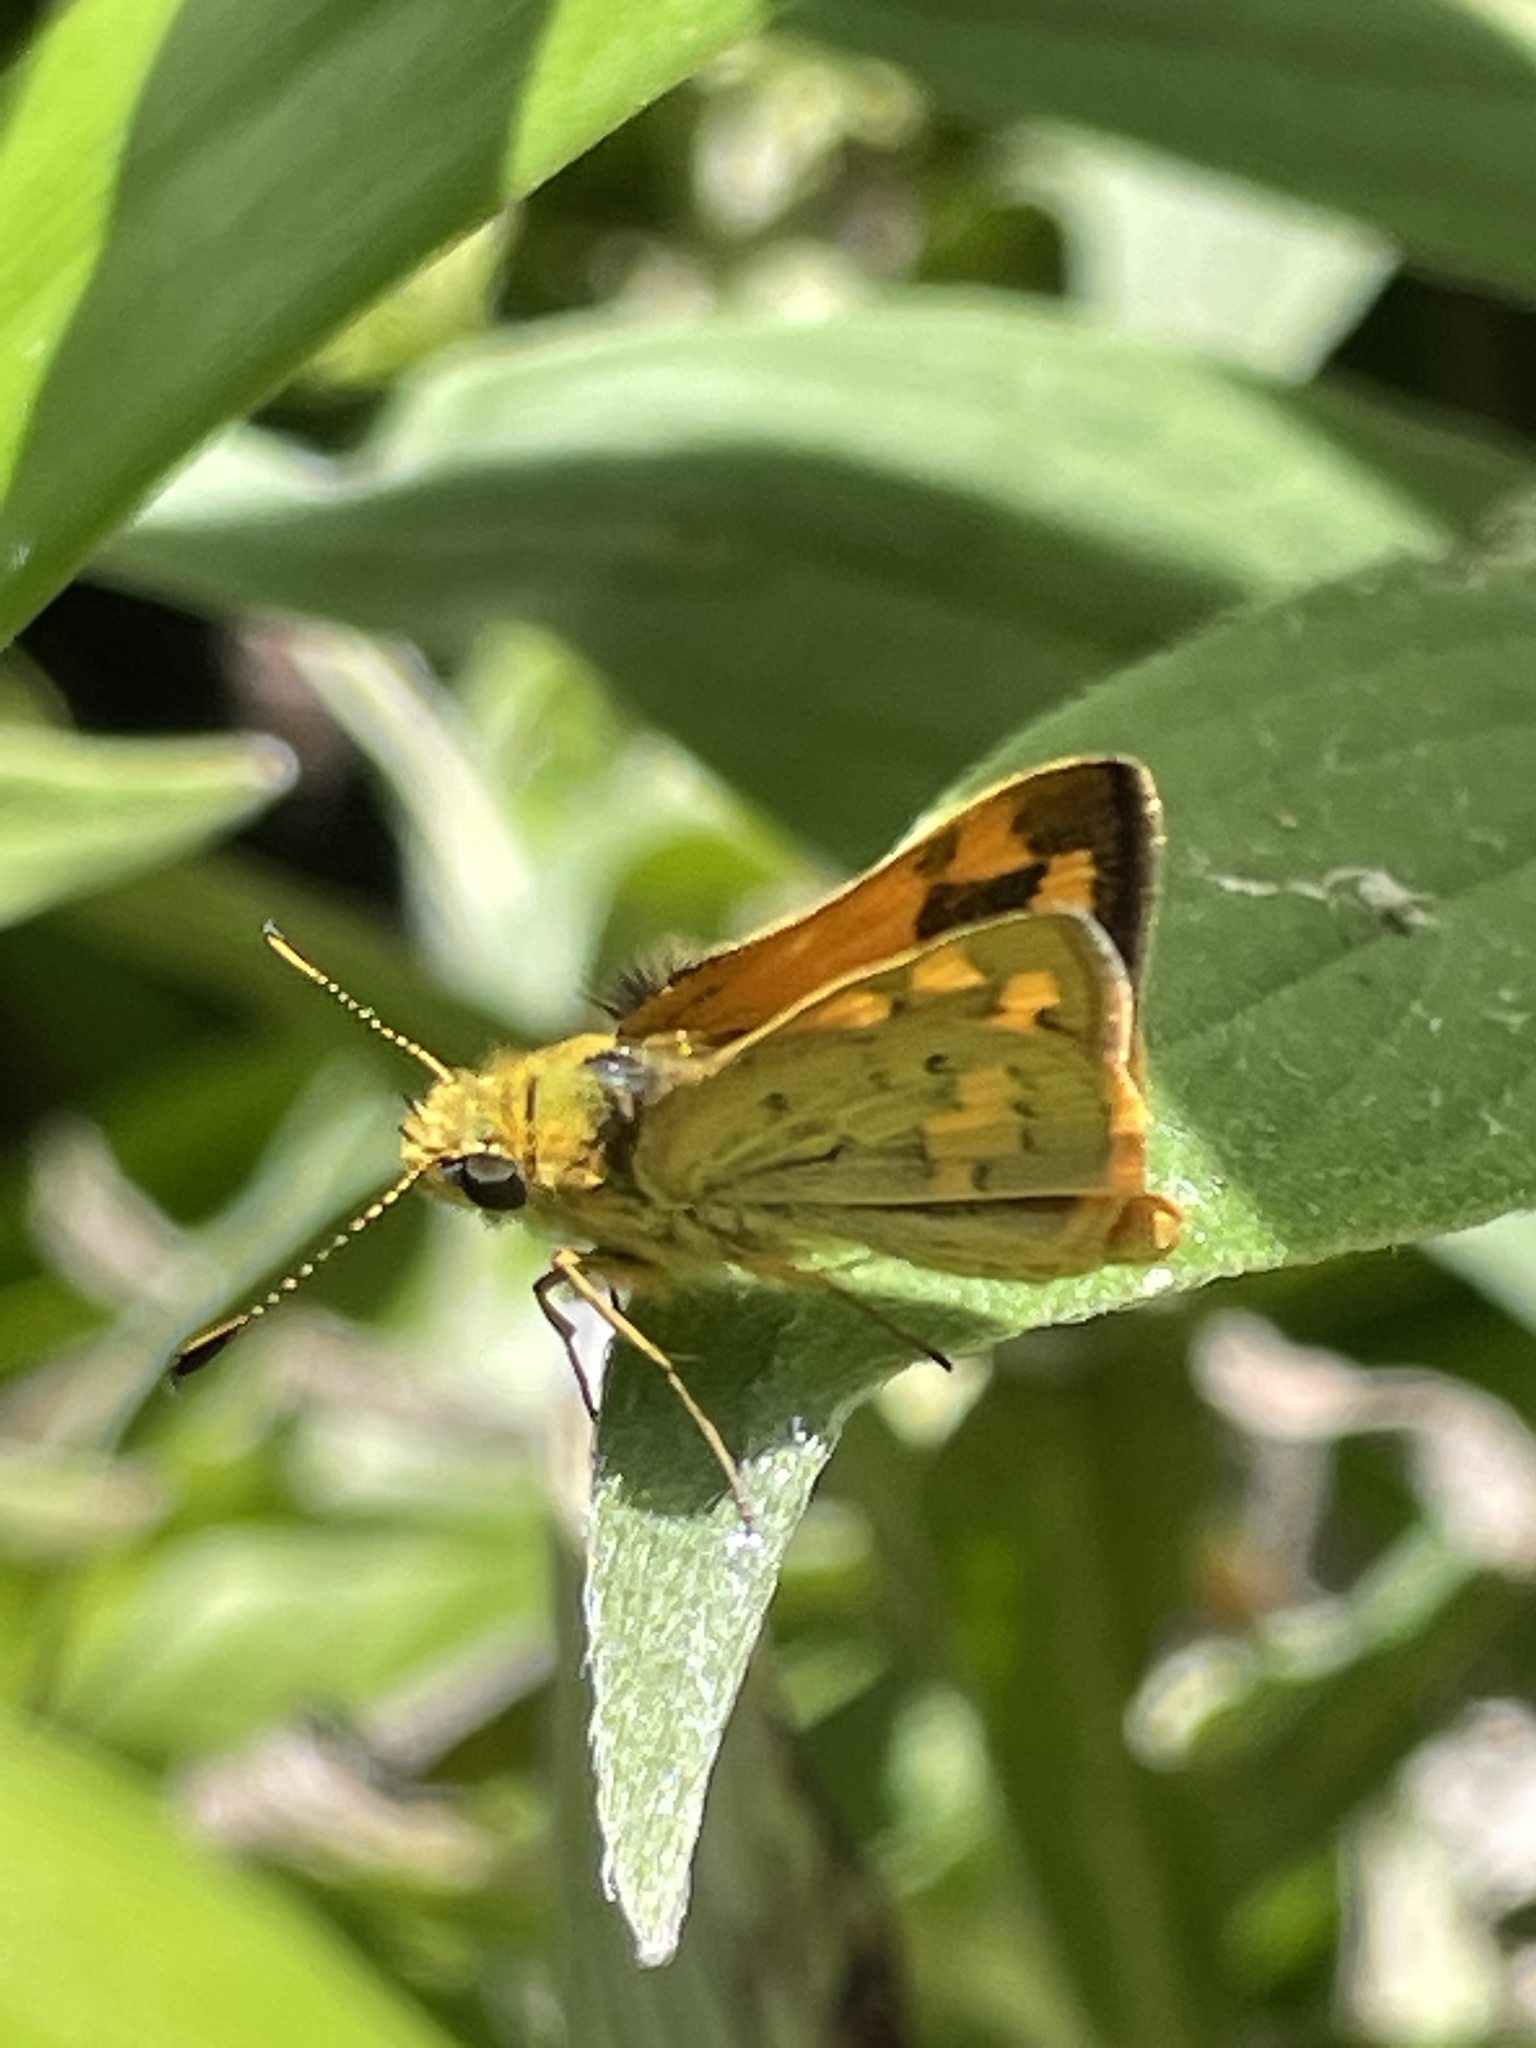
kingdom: Animalia
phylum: Arthropoda
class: Insecta
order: Lepidoptera
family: Hesperiidae
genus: Ocybadistes
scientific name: Ocybadistes walkeri
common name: Yellow-banded dart
